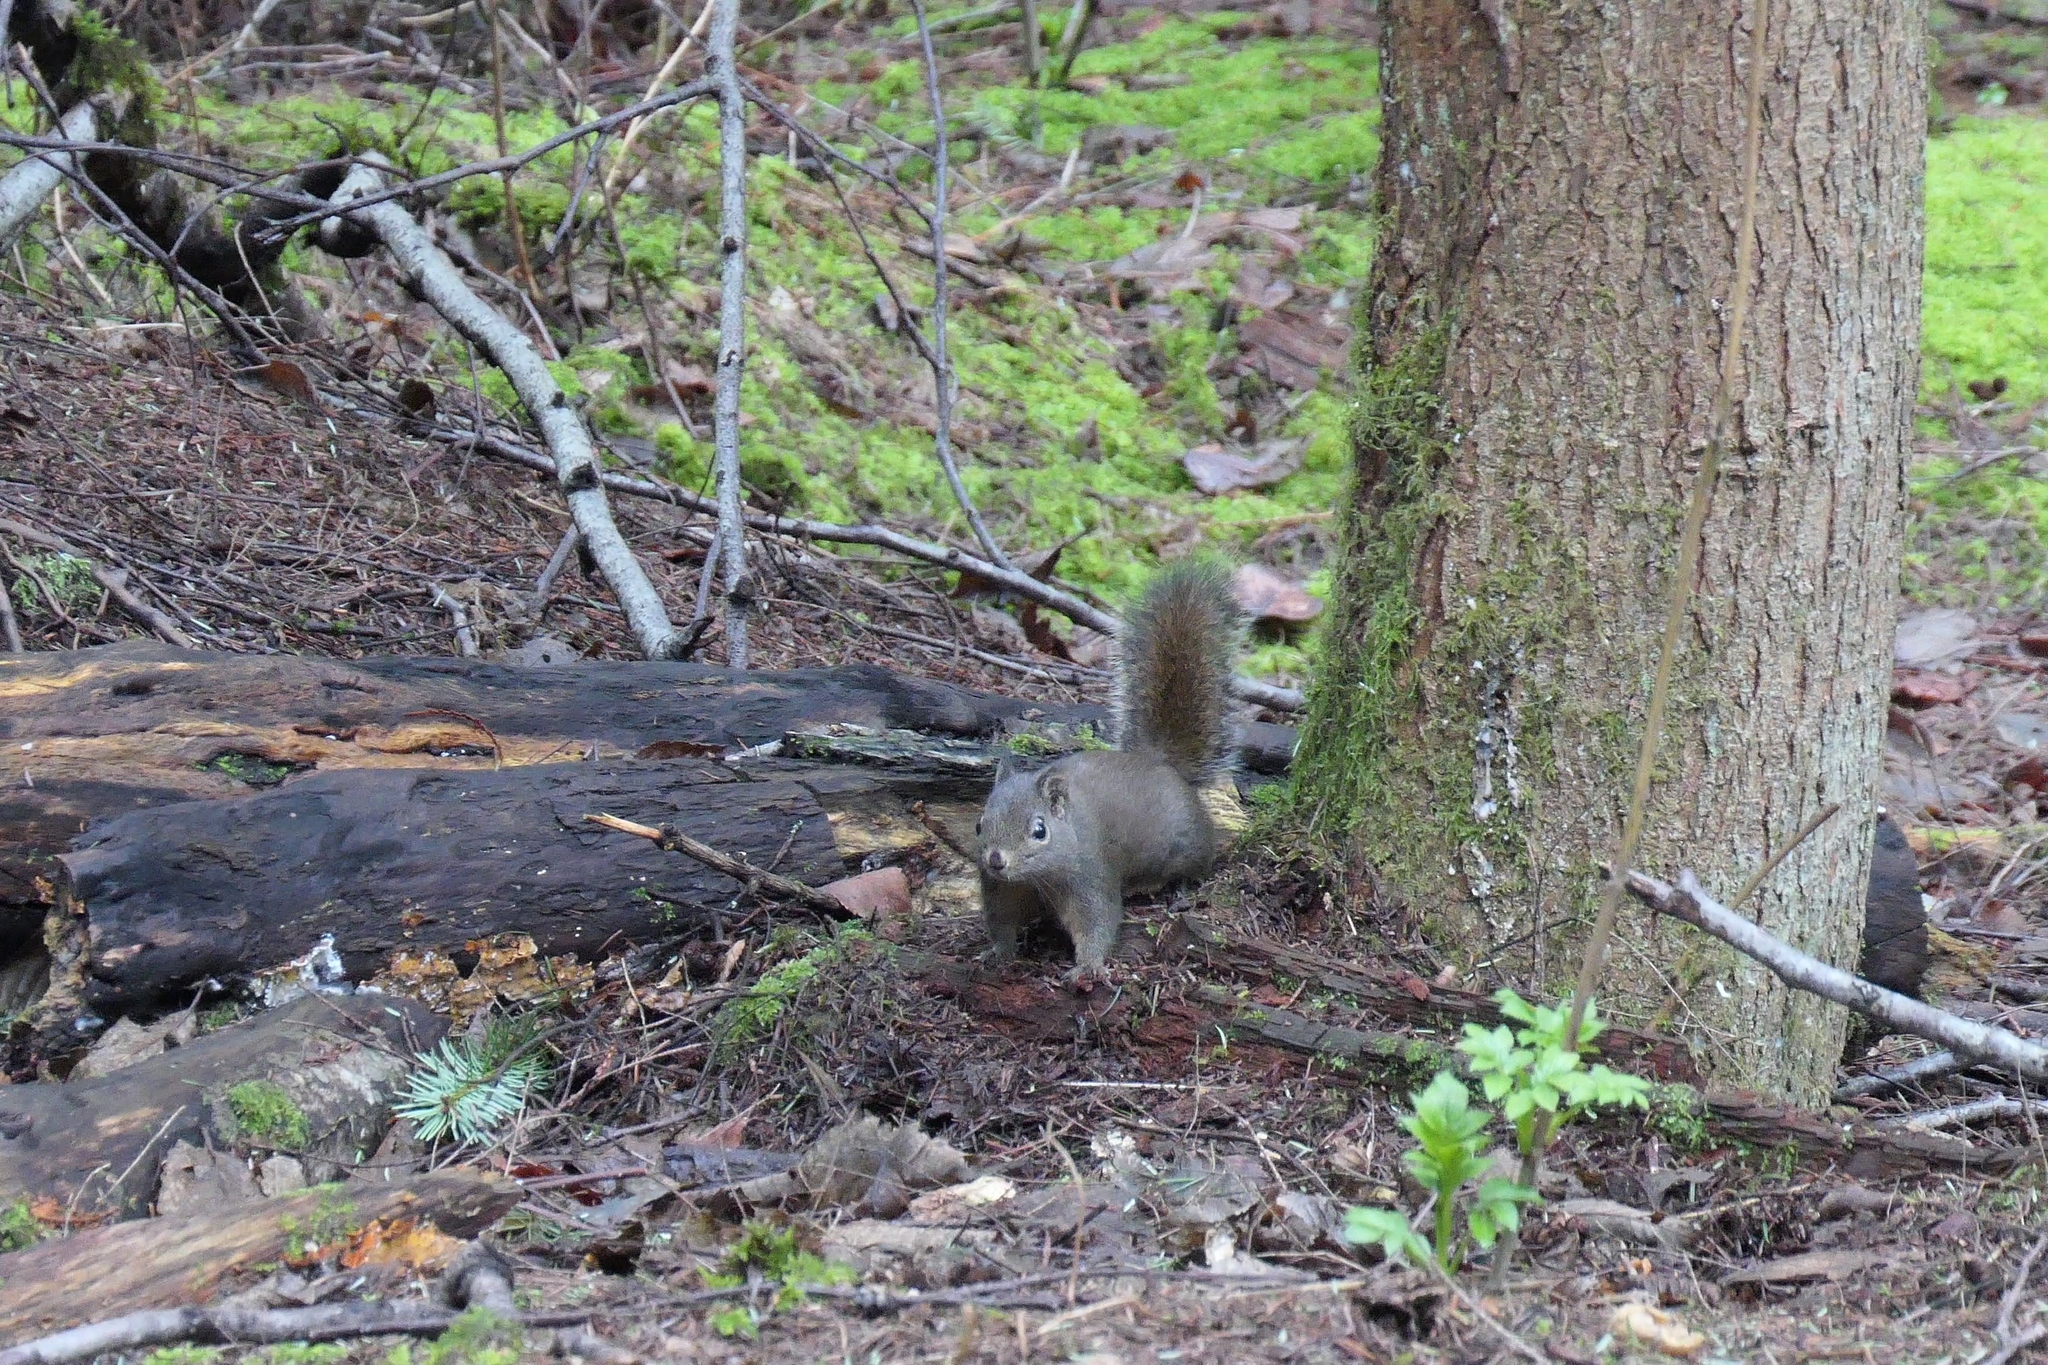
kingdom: Animalia
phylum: Chordata
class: Mammalia
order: Rodentia
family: Sciuridae
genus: Sciurus
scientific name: Sciurus carolinensis
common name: Eastern gray squirrel
